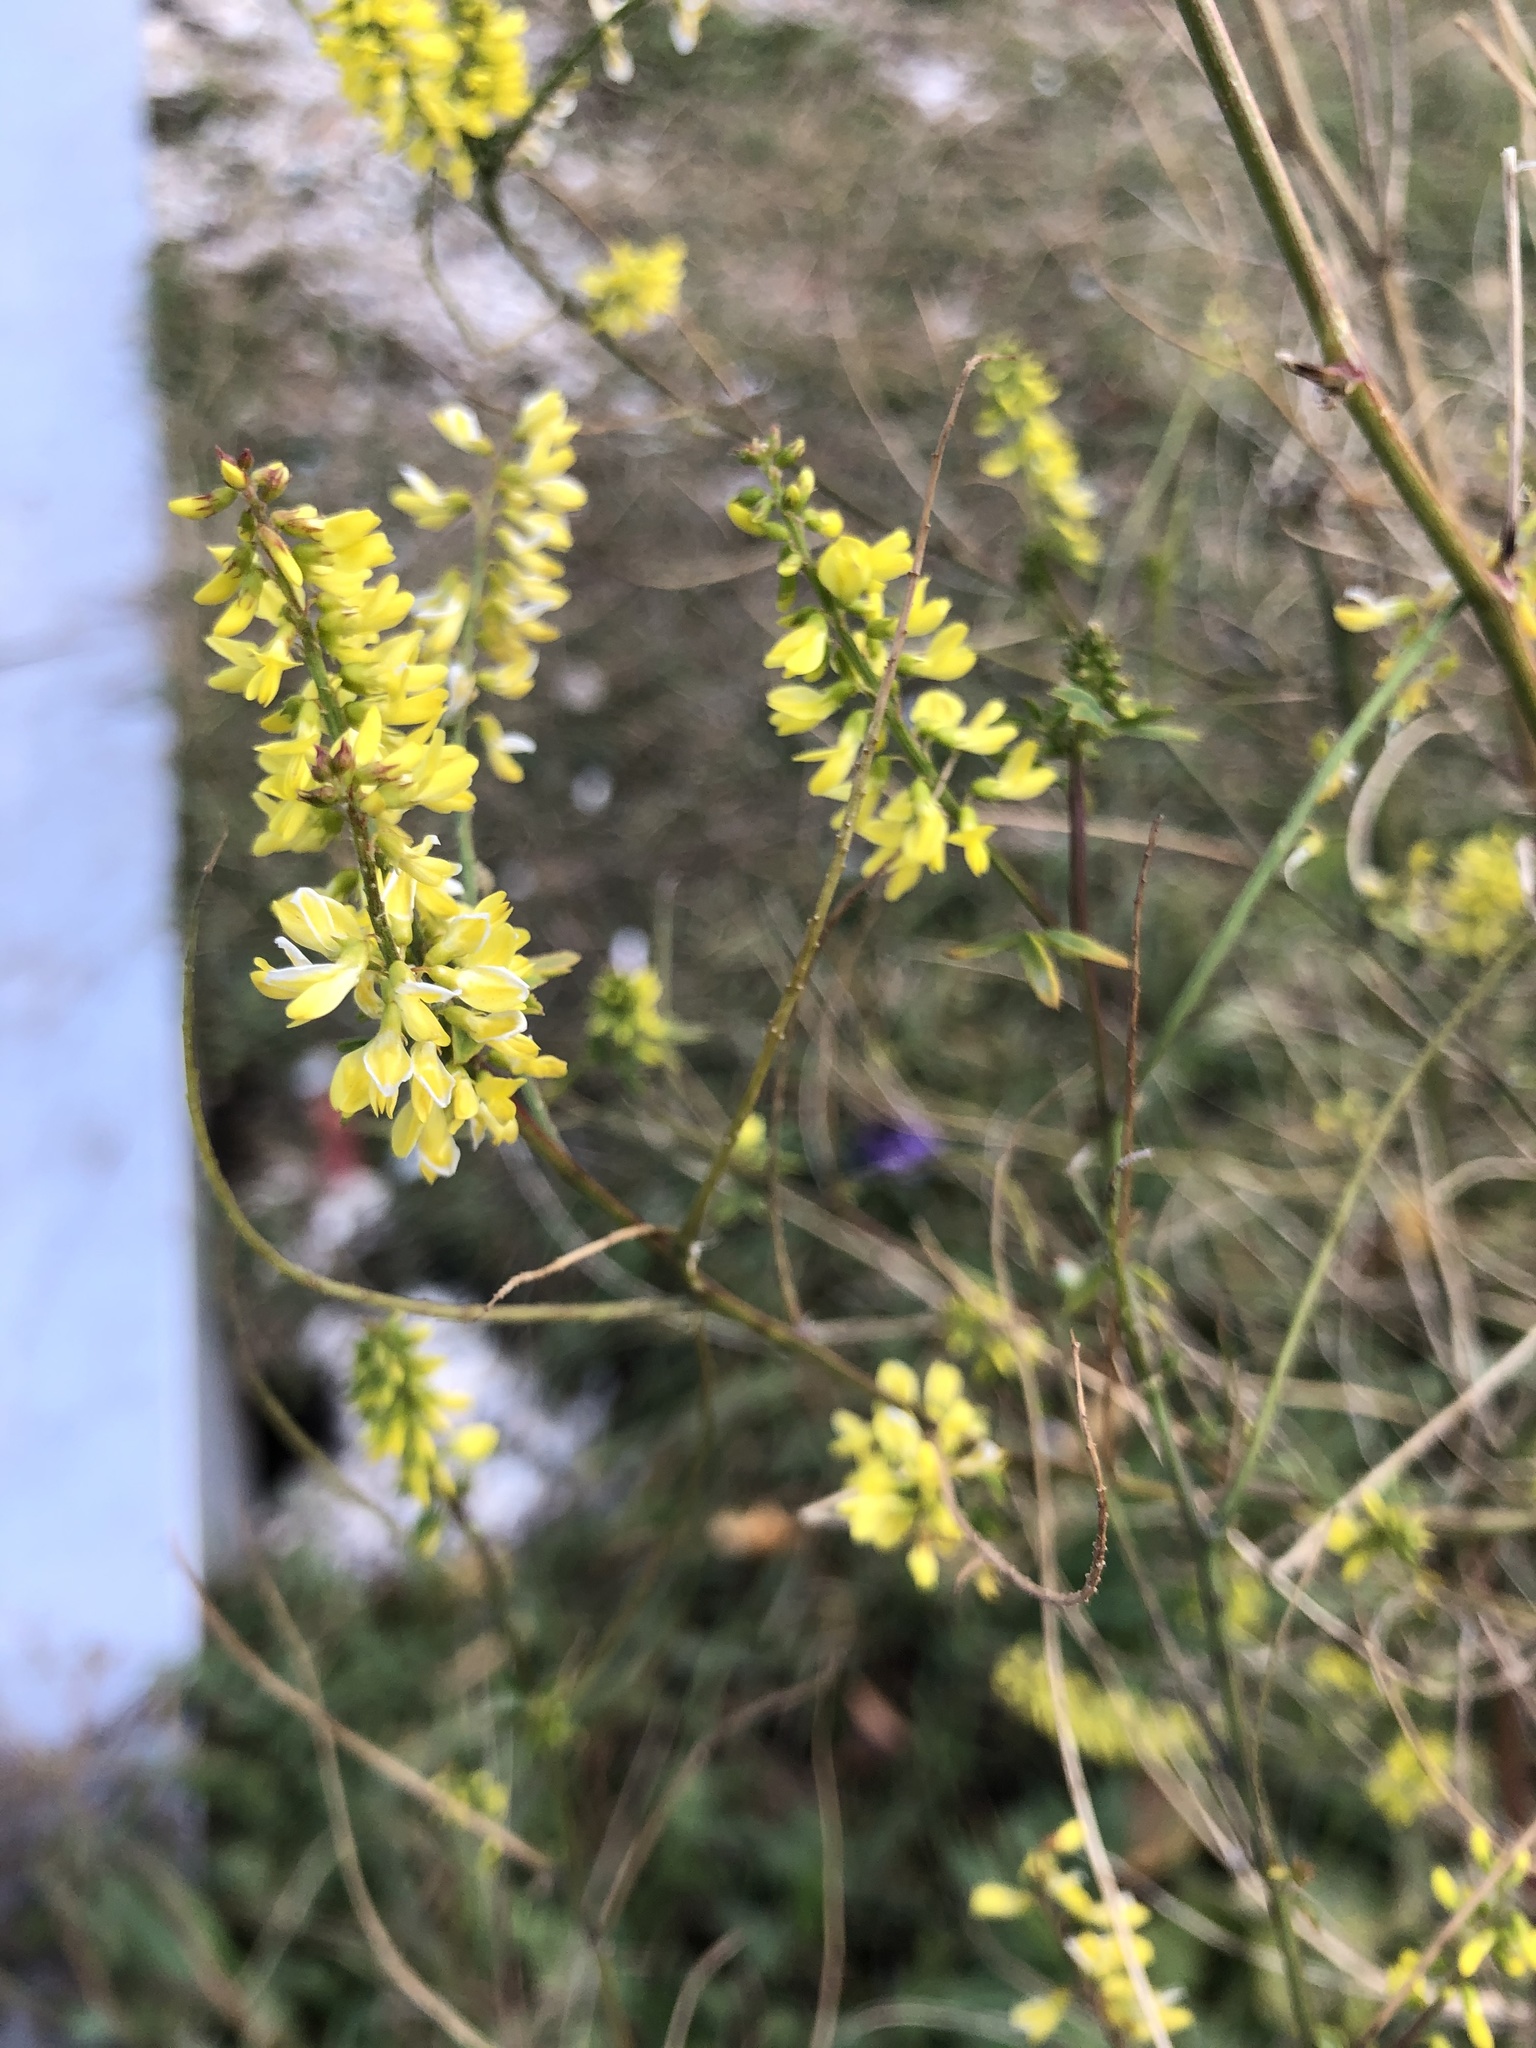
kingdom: Plantae
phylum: Tracheophyta
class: Magnoliopsida
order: Fabales
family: Fabaceae
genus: Melilotus
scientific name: Melilotus officinalis
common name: Sweetclover
